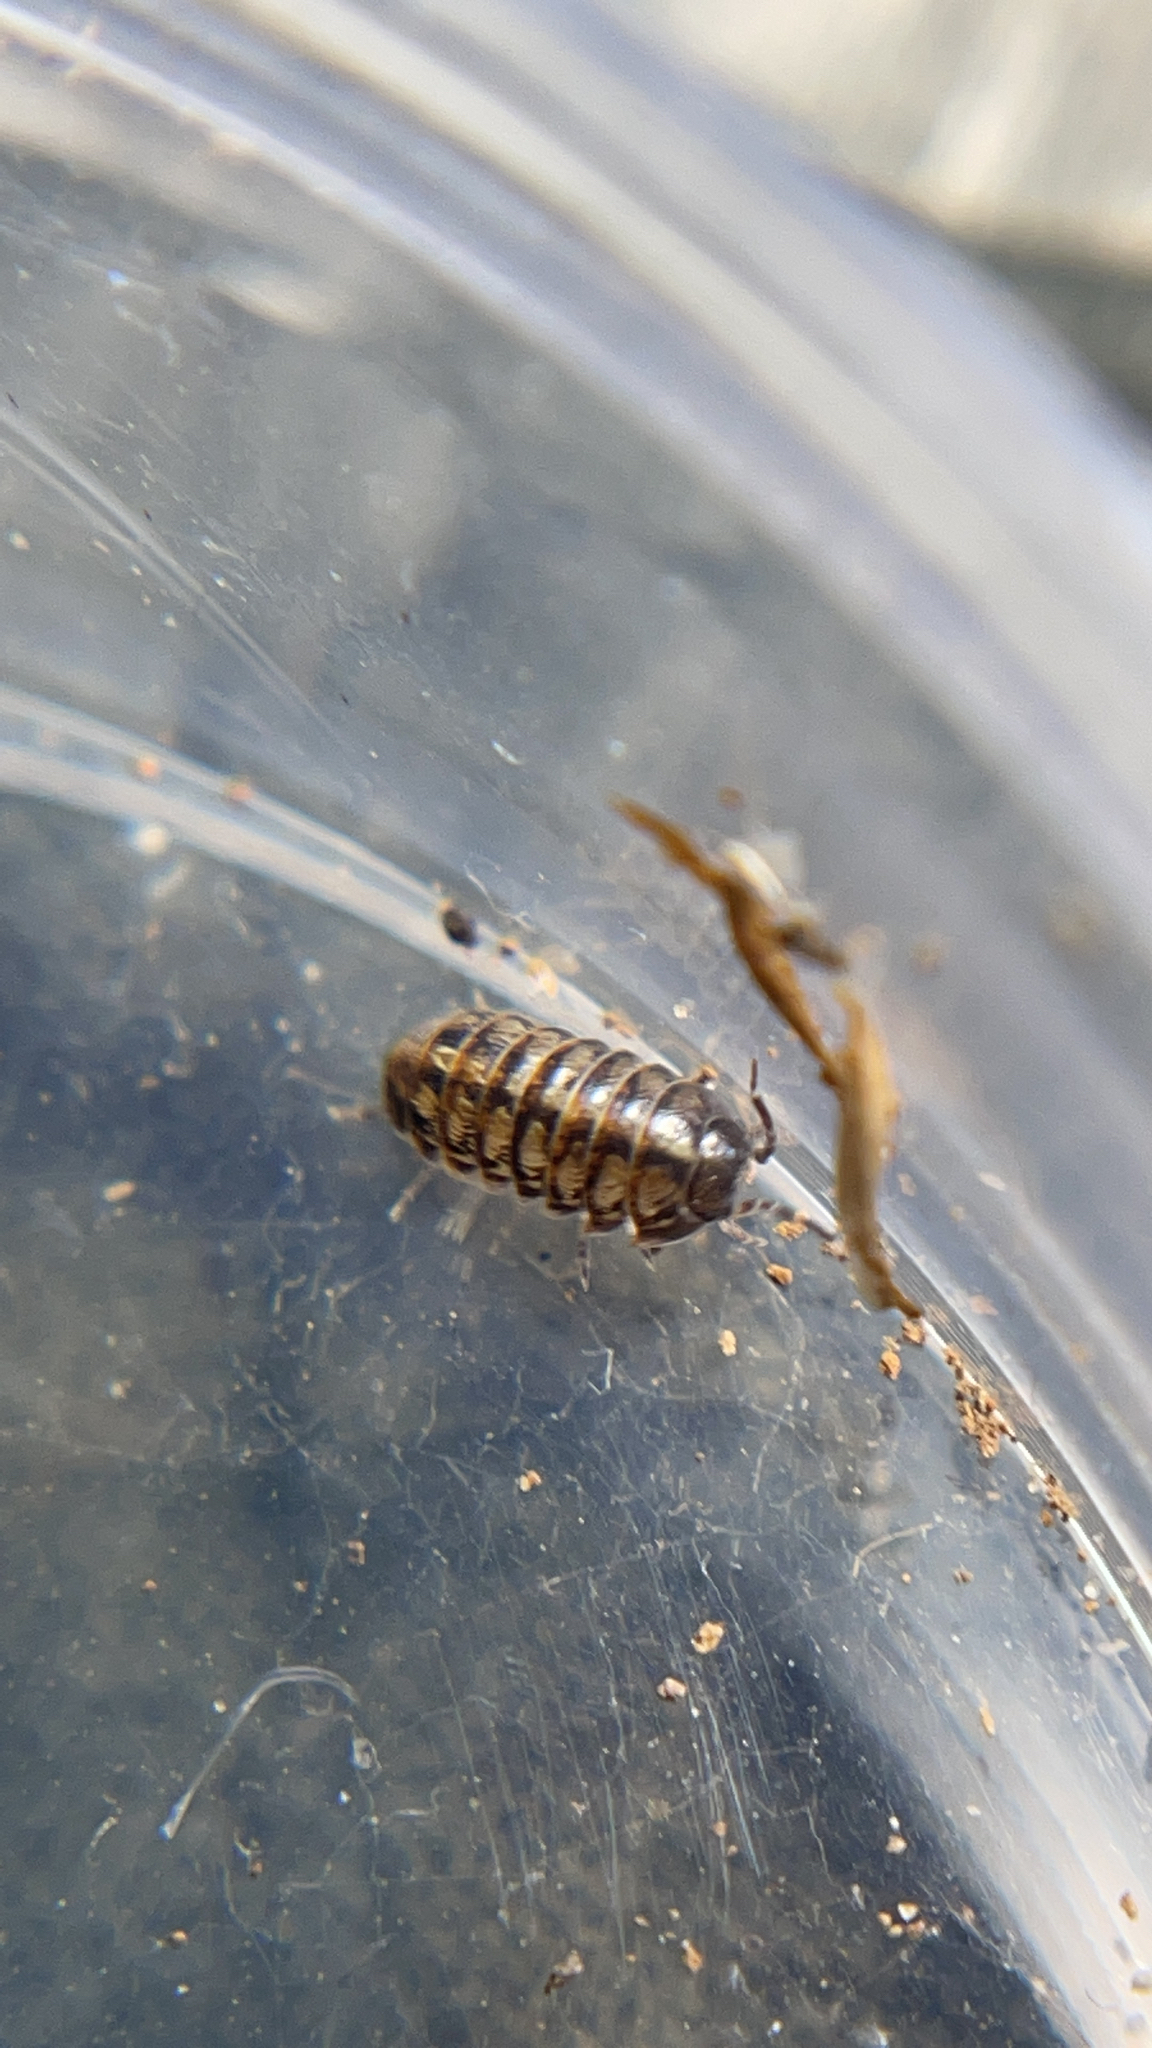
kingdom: Animalia
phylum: Arthropoda
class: Malacostraca
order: Isopoda
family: Armadillidiidae
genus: Armadillidium
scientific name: Armadillidium vulgare
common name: Common pill woodlouse
